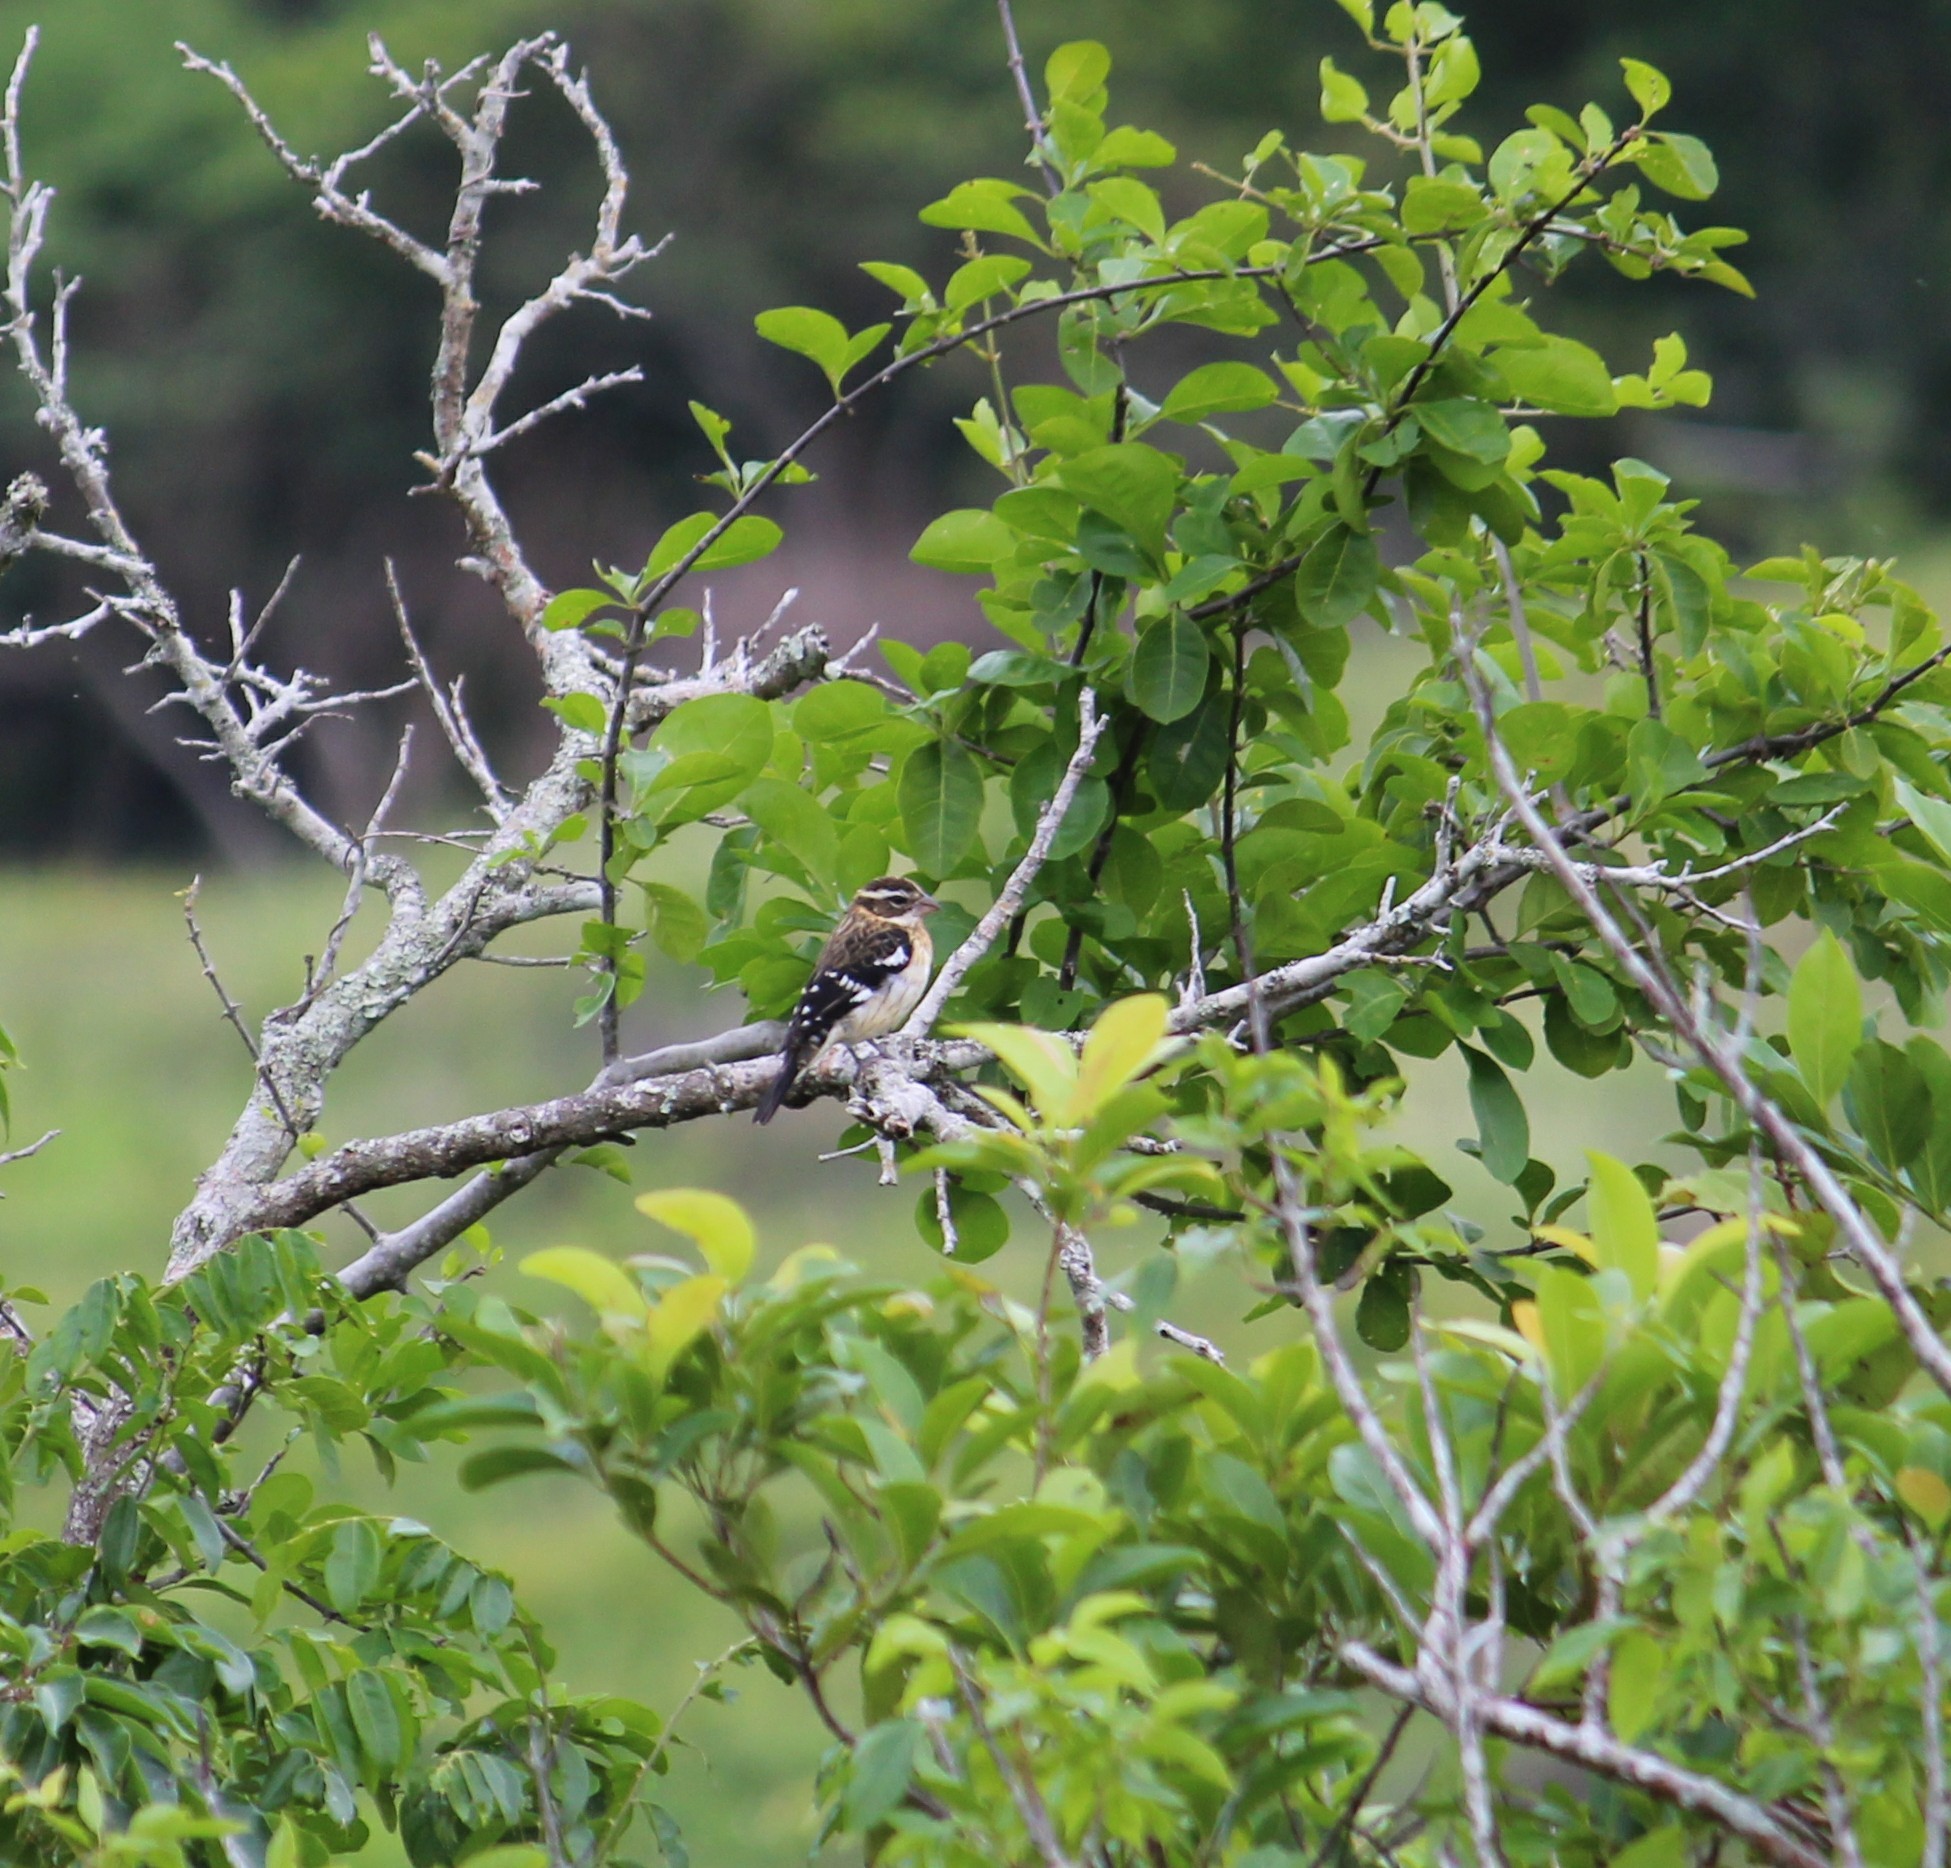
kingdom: Animalia
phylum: Chordata
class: Aves
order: Passeriformes
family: Cardinalidae
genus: Pheucticus
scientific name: Pheucticus ludovicianus
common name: Rose-breasted grosbeak
